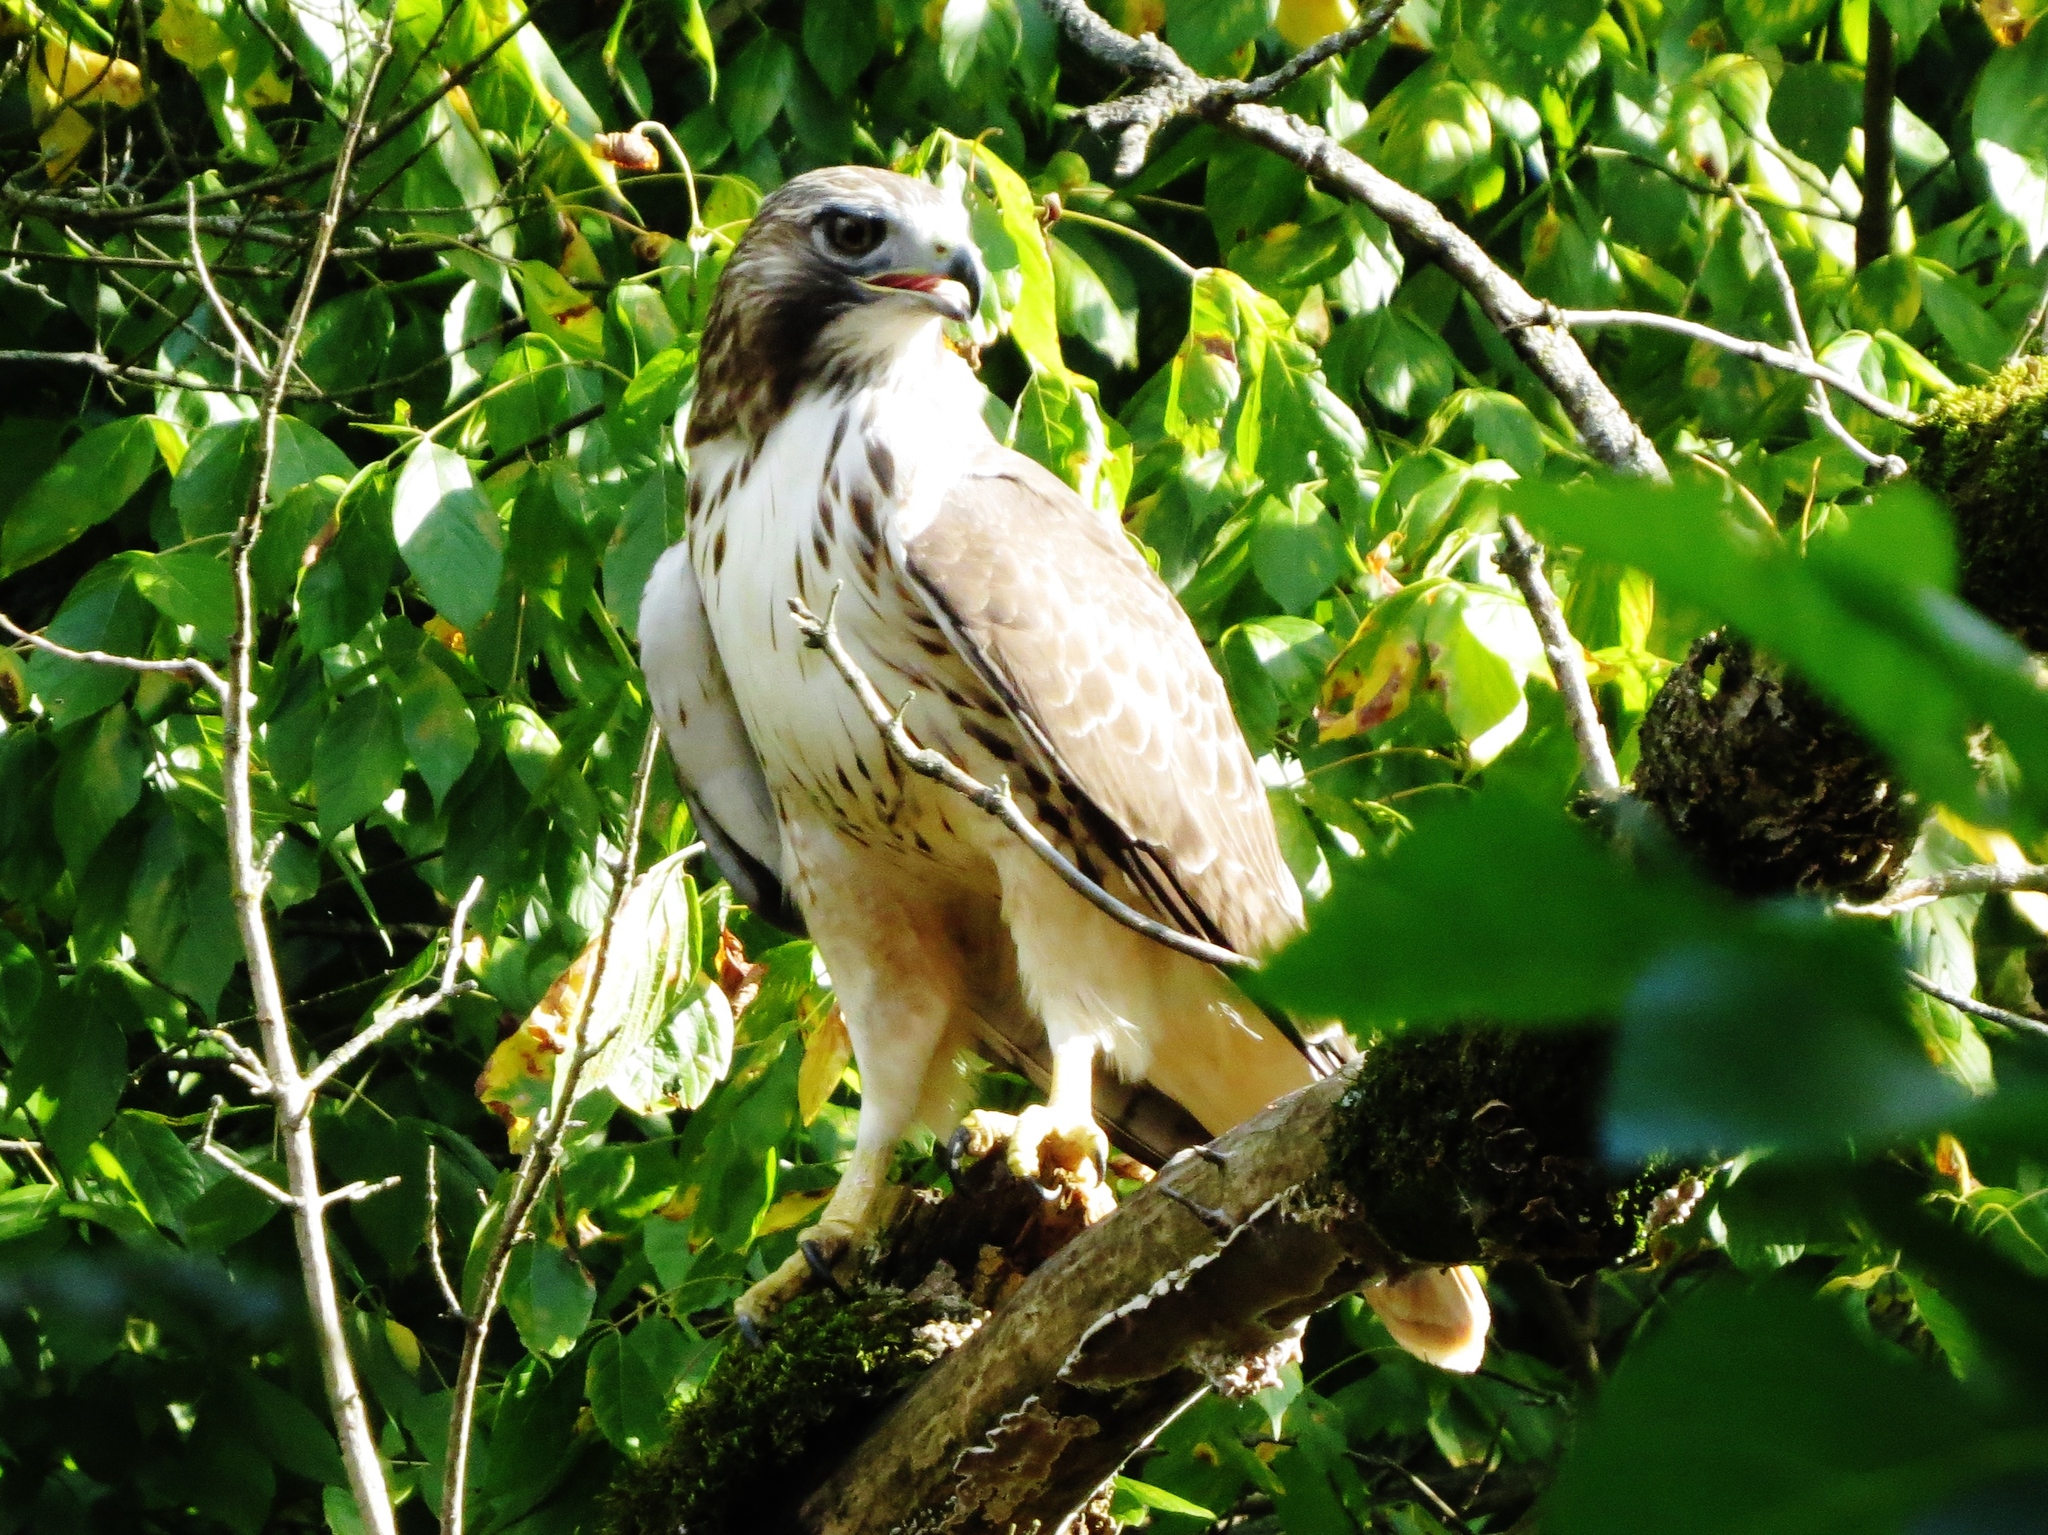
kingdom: Animalia
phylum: Chordata
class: Aves
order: Accipitriformes
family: Accipitridae
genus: Buteo
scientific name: Buteo jamaicensis
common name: Red-tailed hawk
